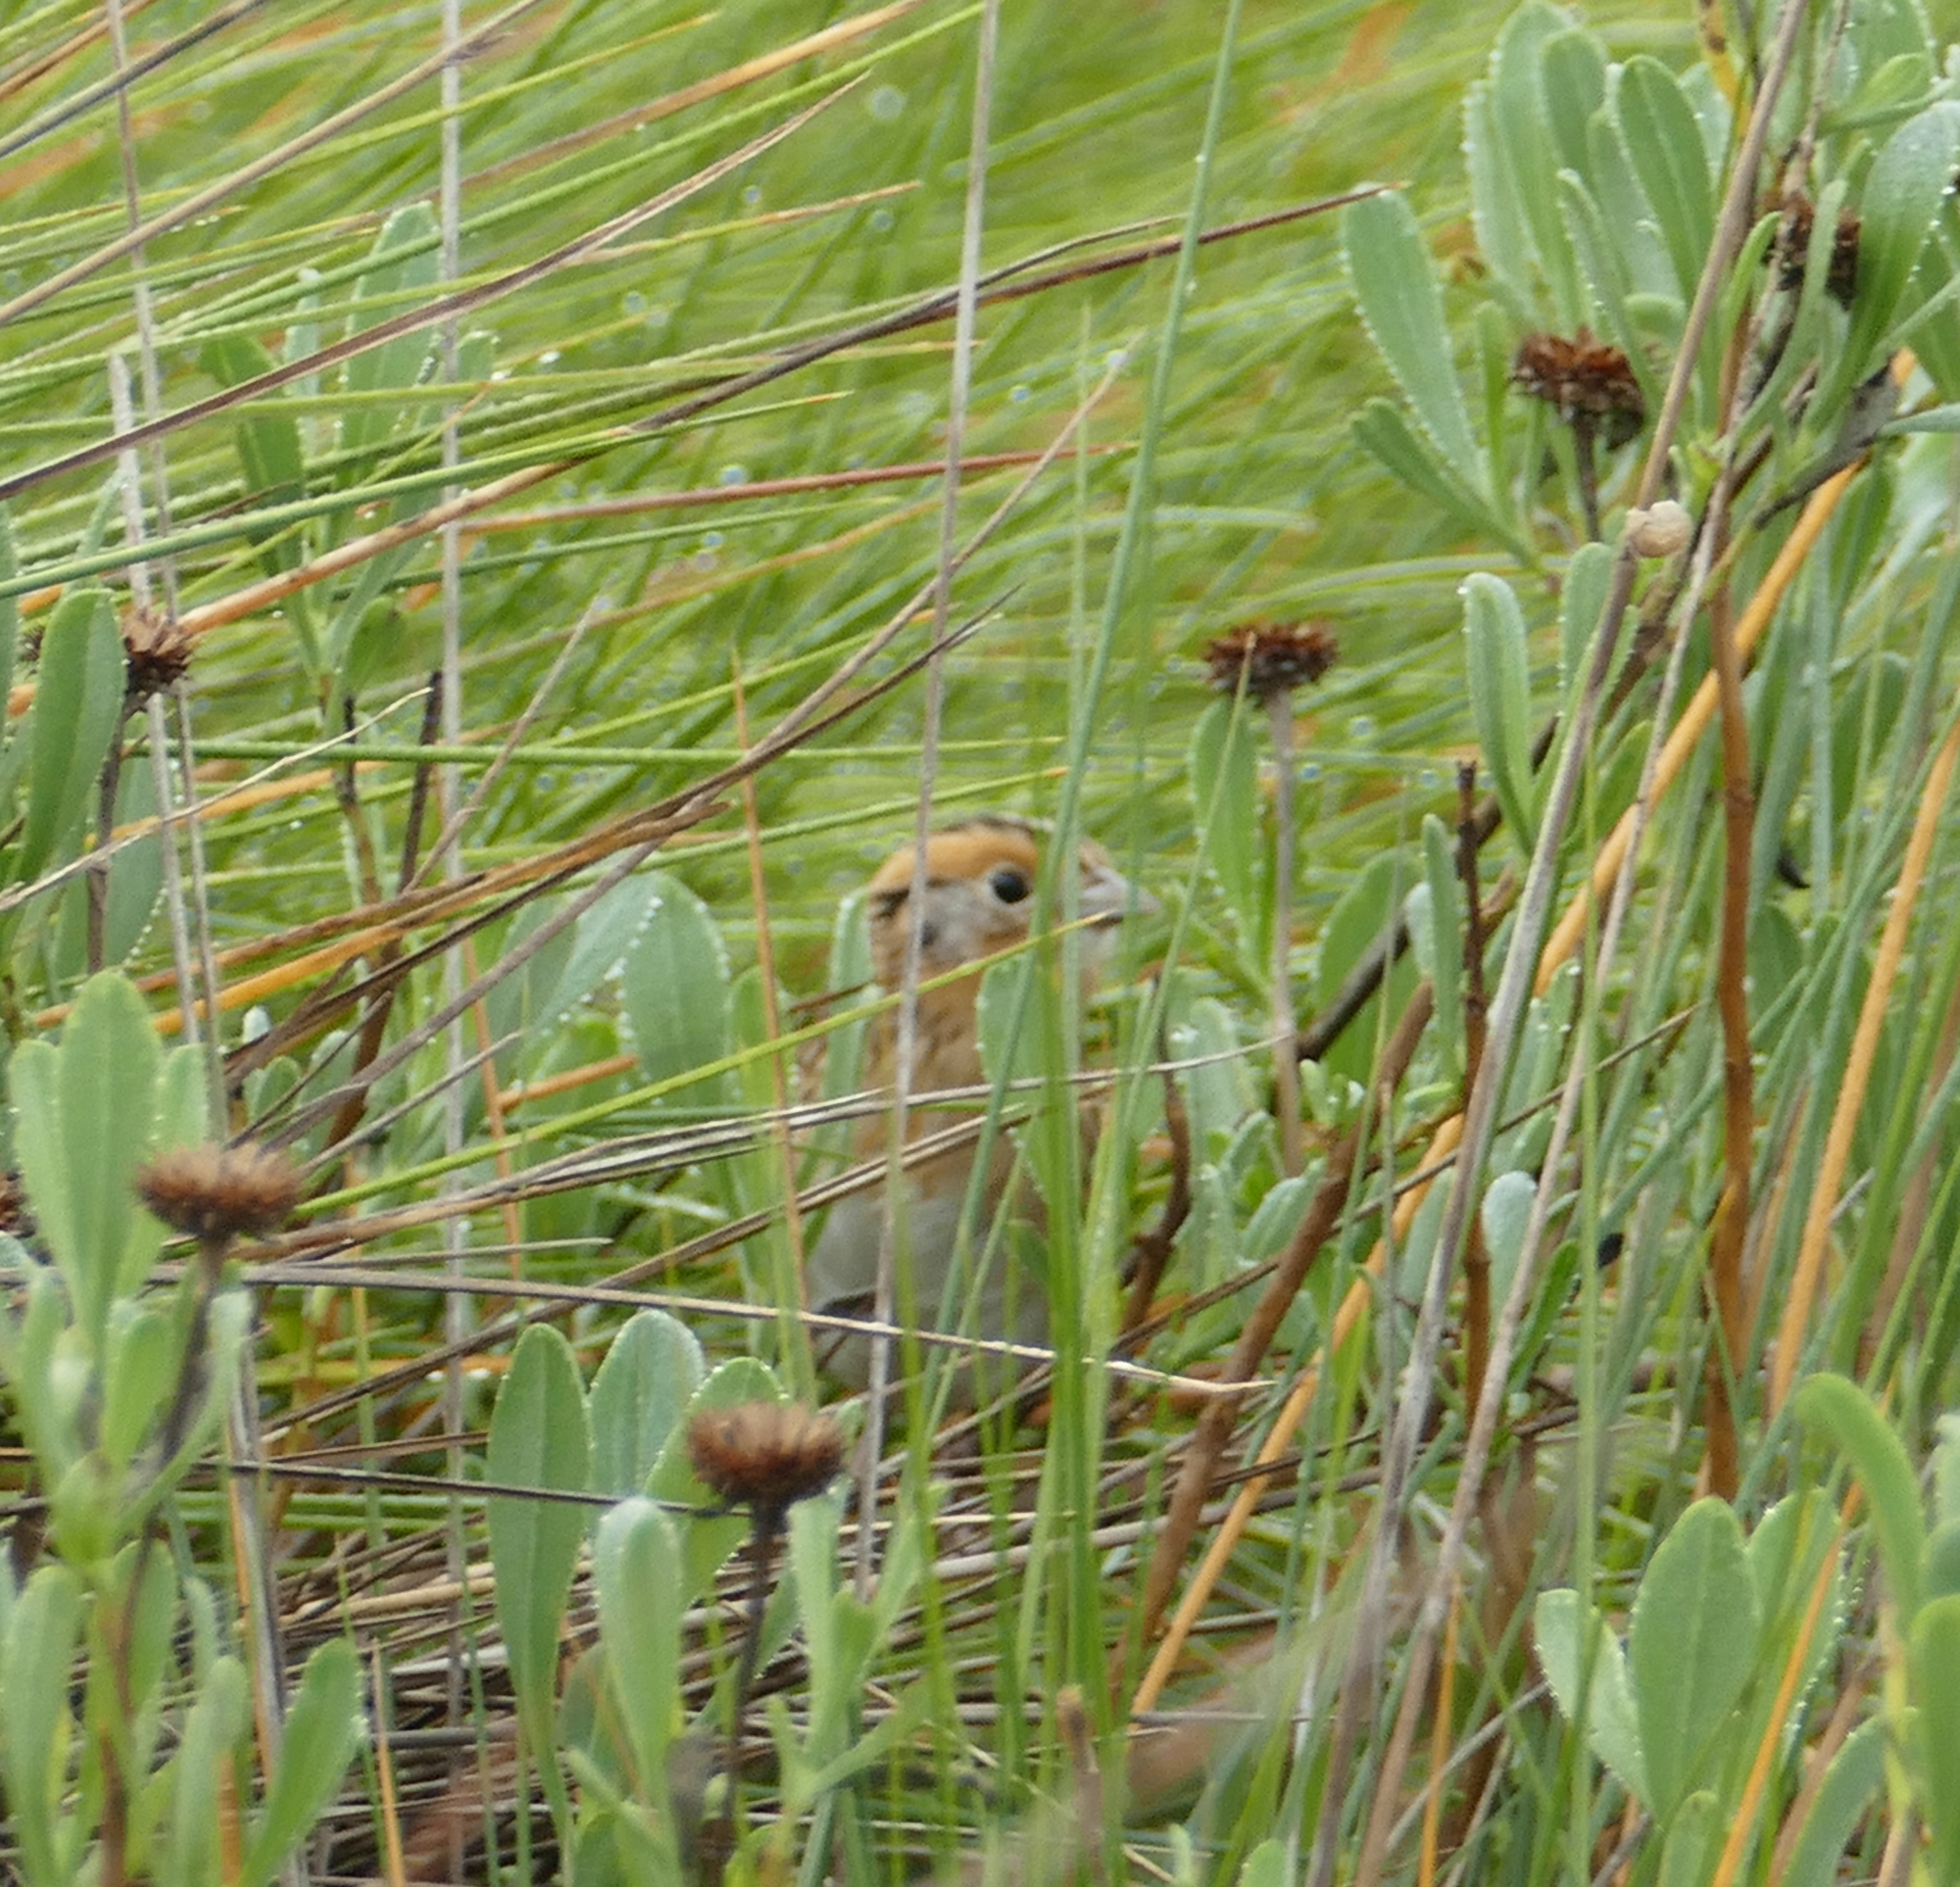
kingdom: Animalia
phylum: Chordata
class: Aves
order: Passeriformes
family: Passerellidae
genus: Ammospiza
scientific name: Ammospiza leconteii
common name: Le conte's sparrow
